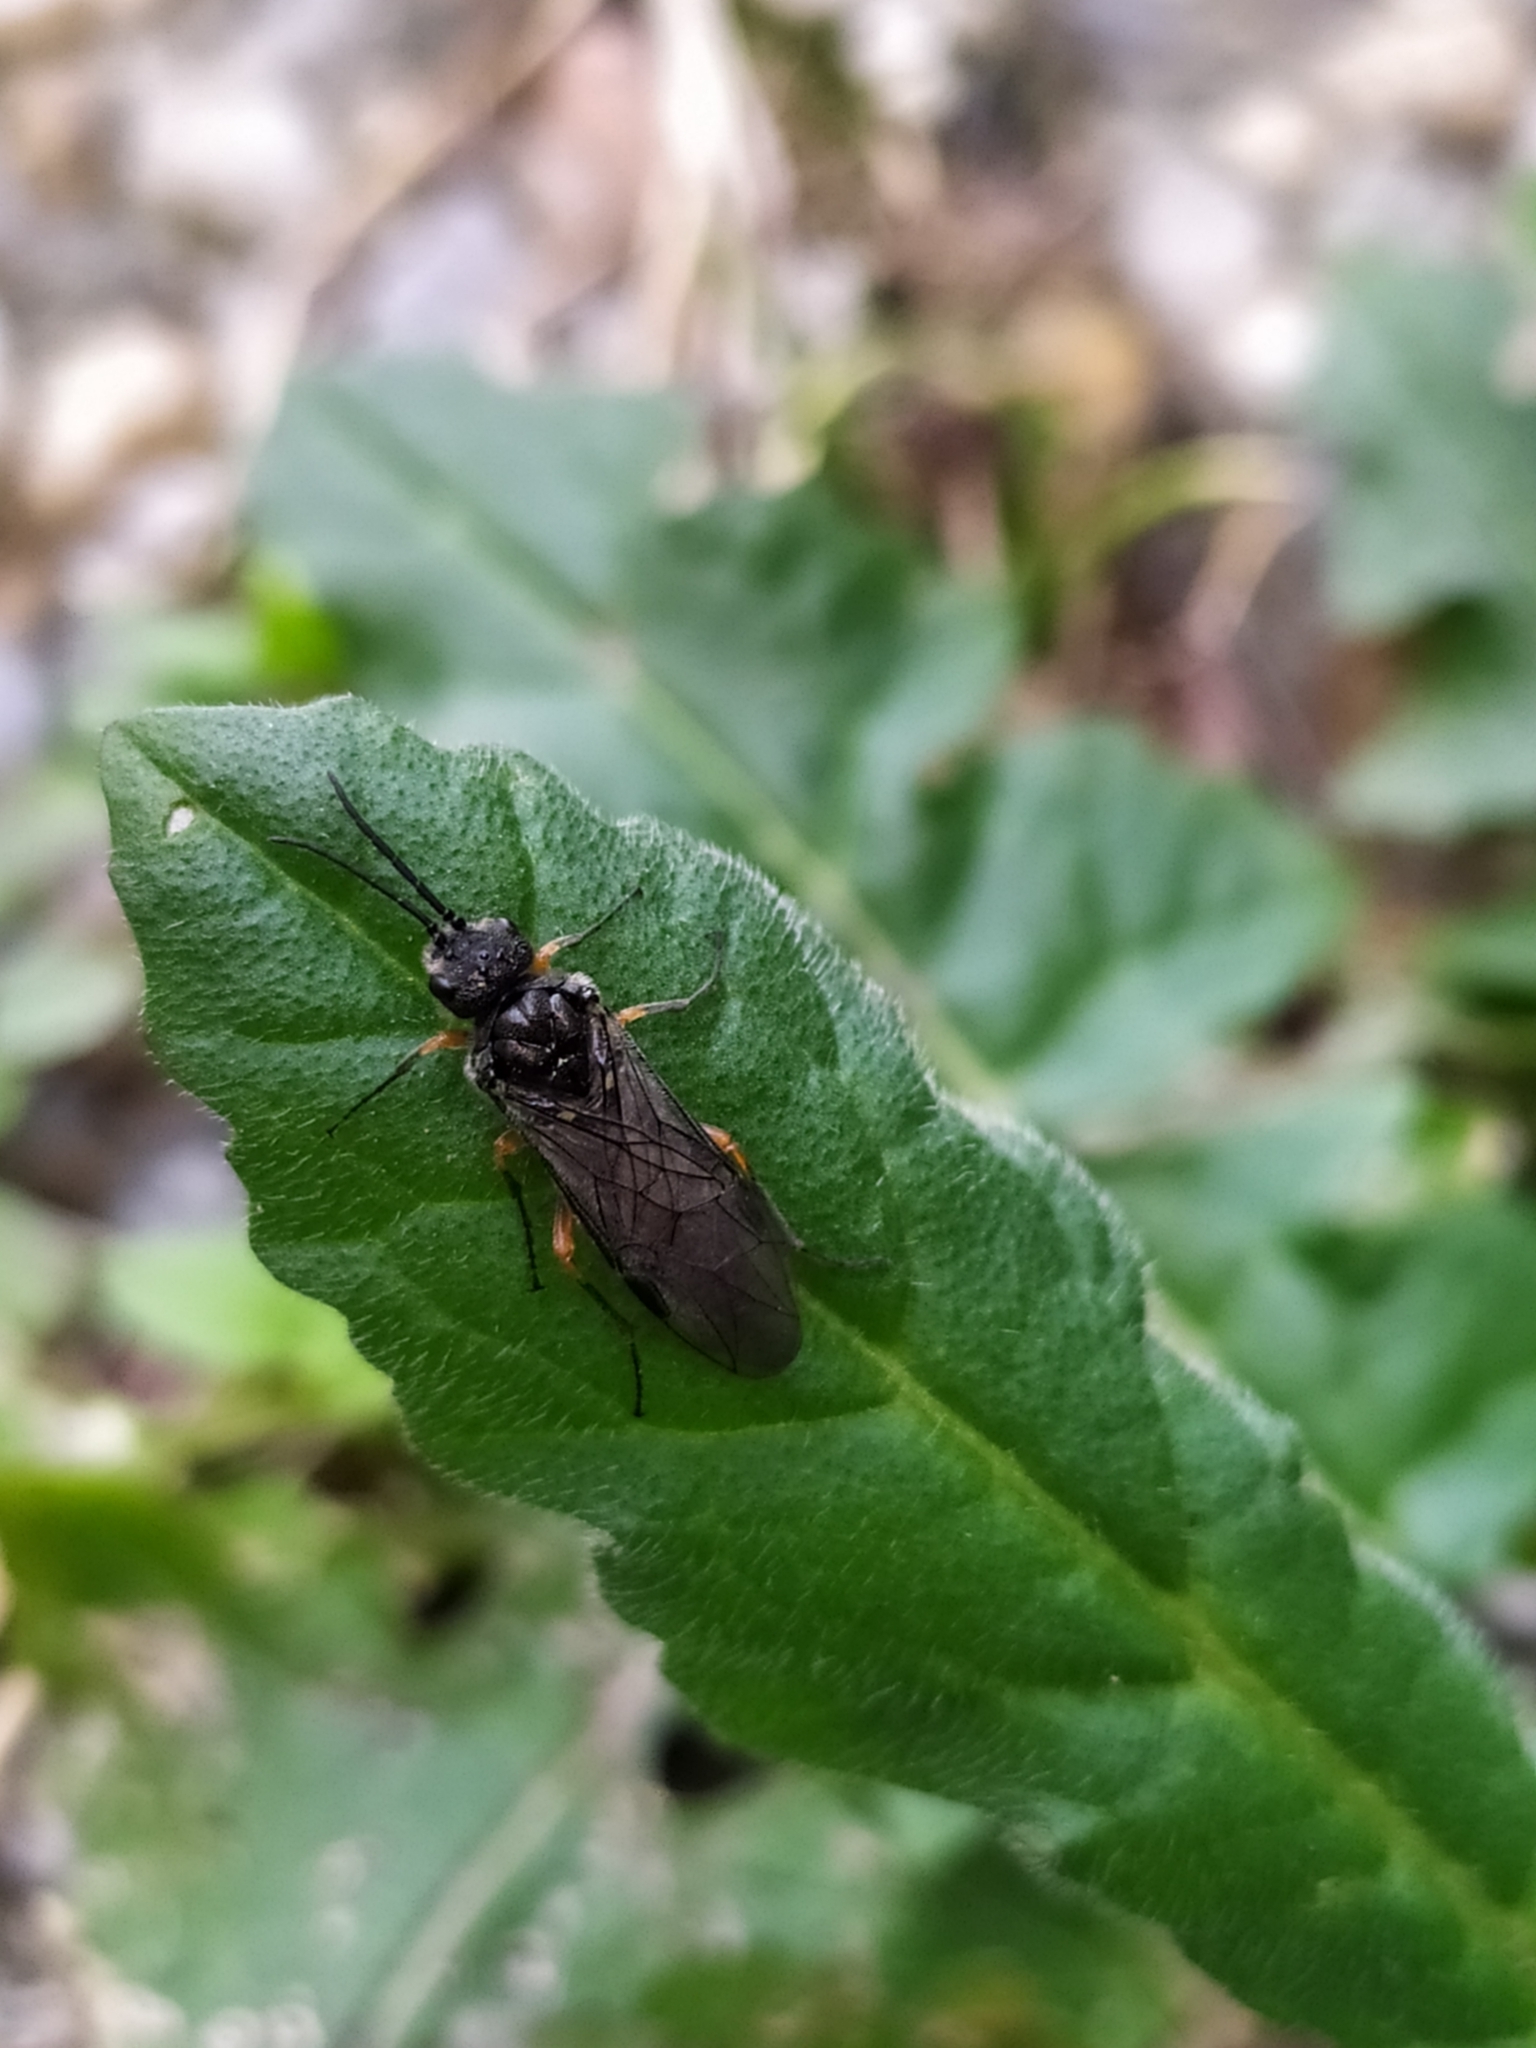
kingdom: Animalia
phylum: Arthropoda
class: Insecta
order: Hymenoptera
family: Tenthredinidae
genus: Dolerus
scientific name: Dolerus puncticollis
